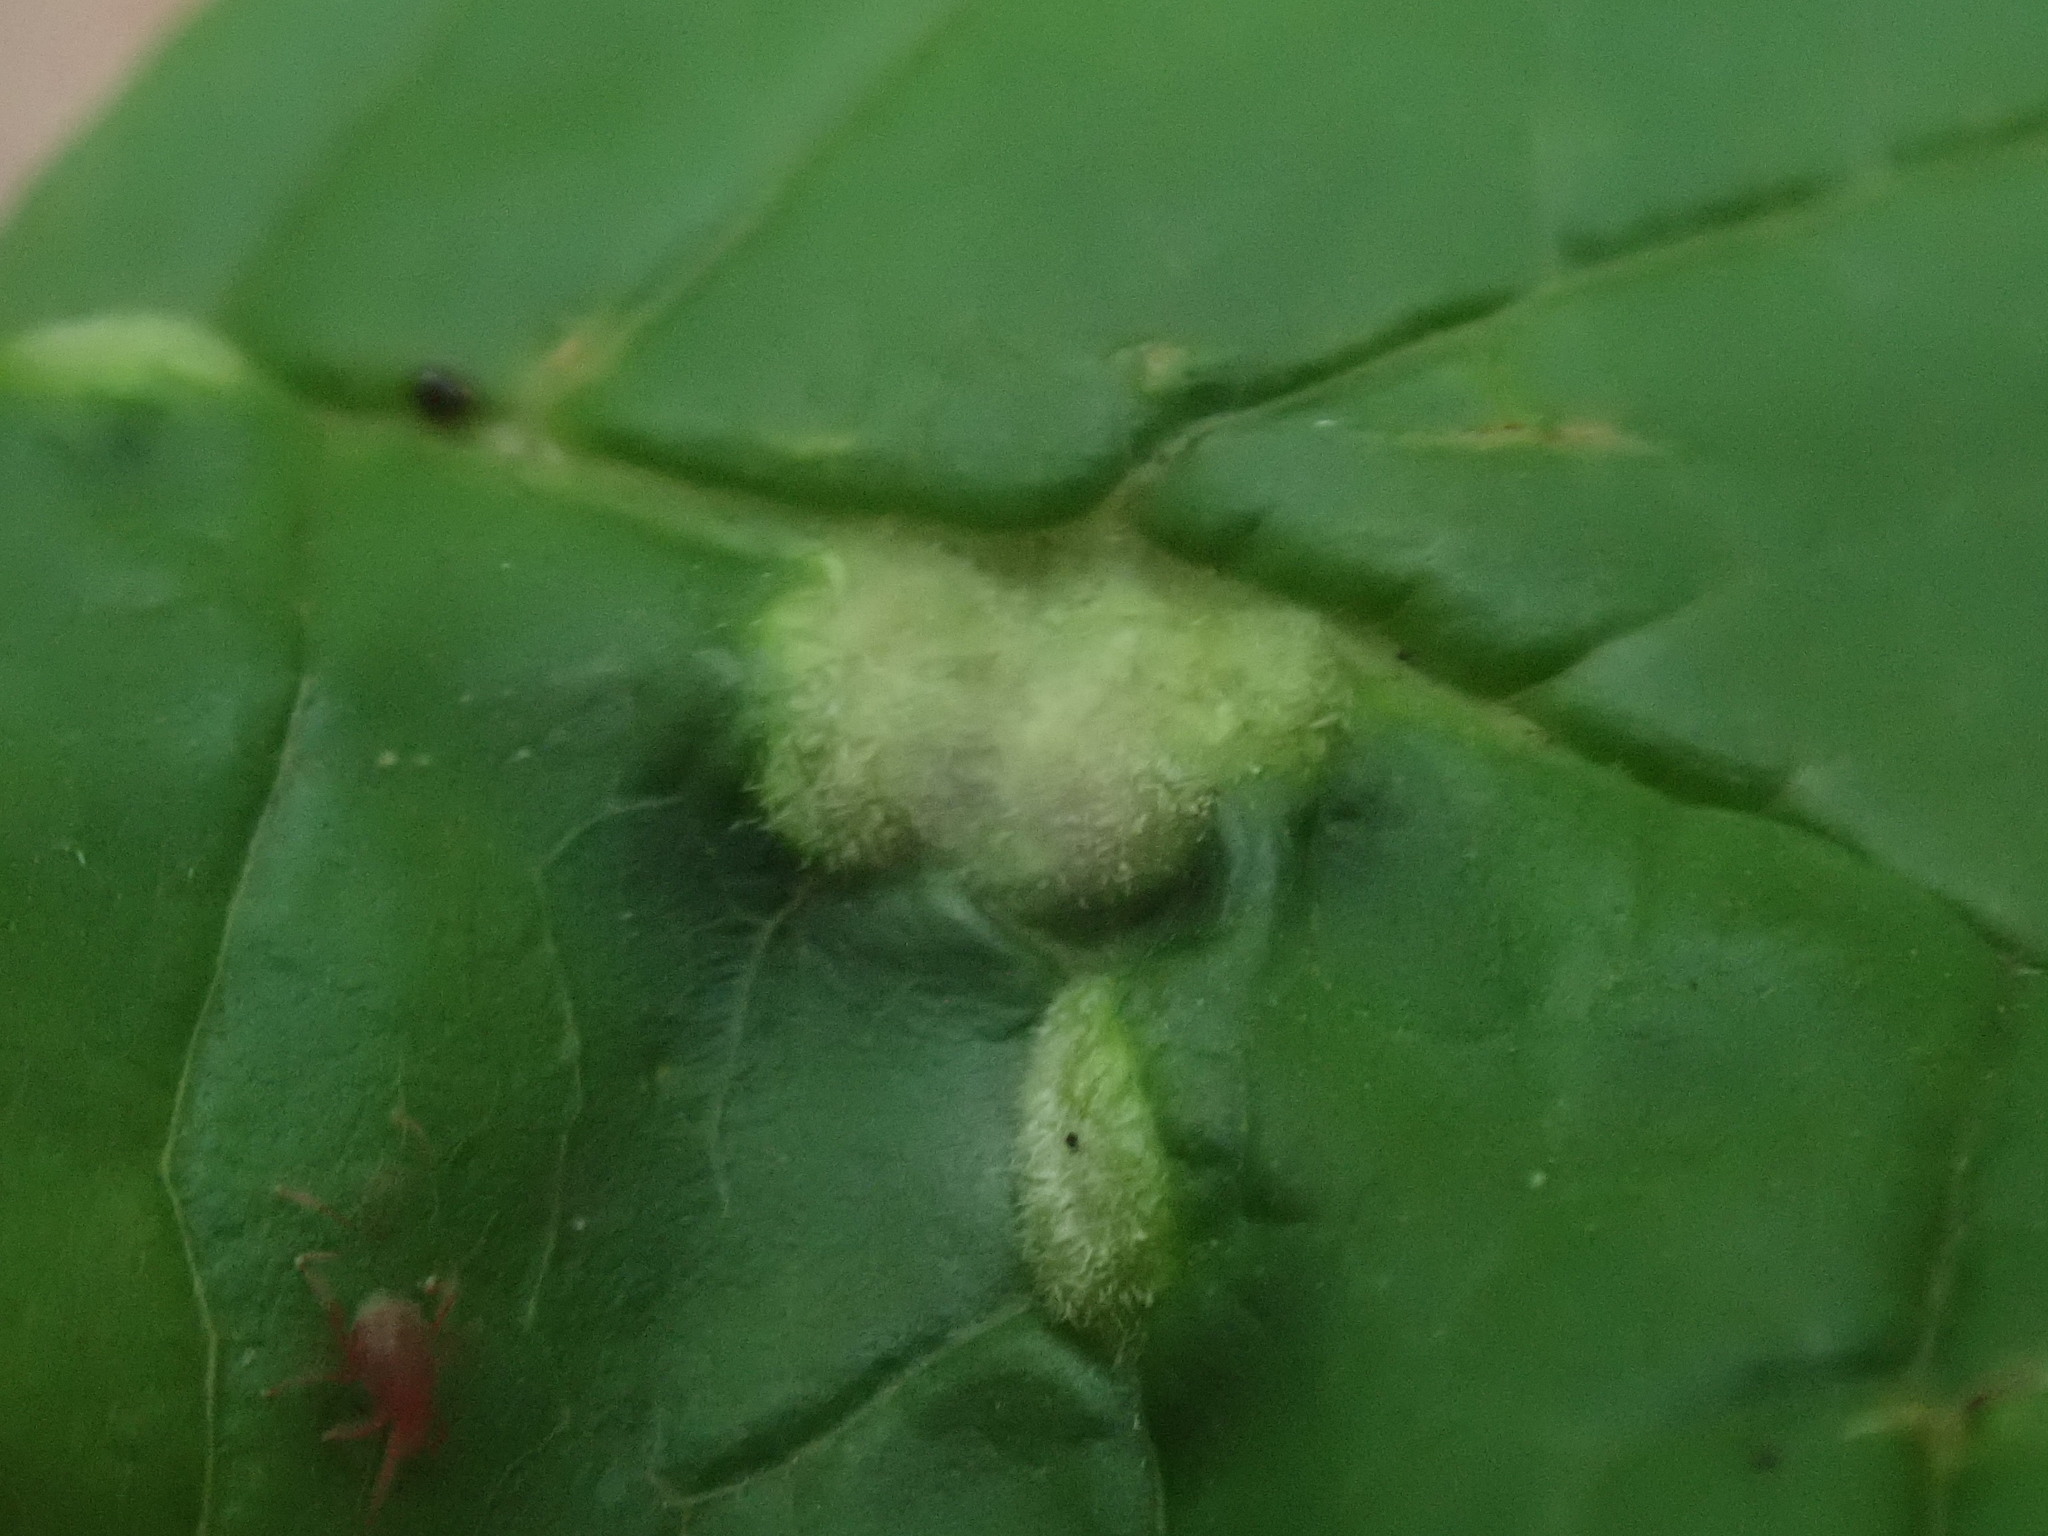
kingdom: Animalia
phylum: Arthropoda
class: Arachnida
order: Trombidiformes
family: Eriophyidae
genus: Aceria
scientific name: Aceria fraxinicola
